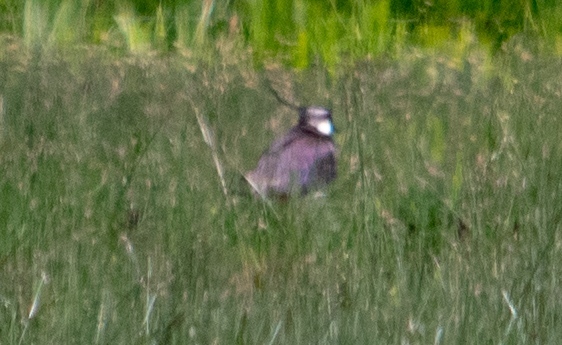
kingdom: Animalia
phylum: Chordata
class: Aves
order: Charadriiformes
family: Charadriidae
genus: Vanellus
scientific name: Vanellus vanellus
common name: Northern lapwing
